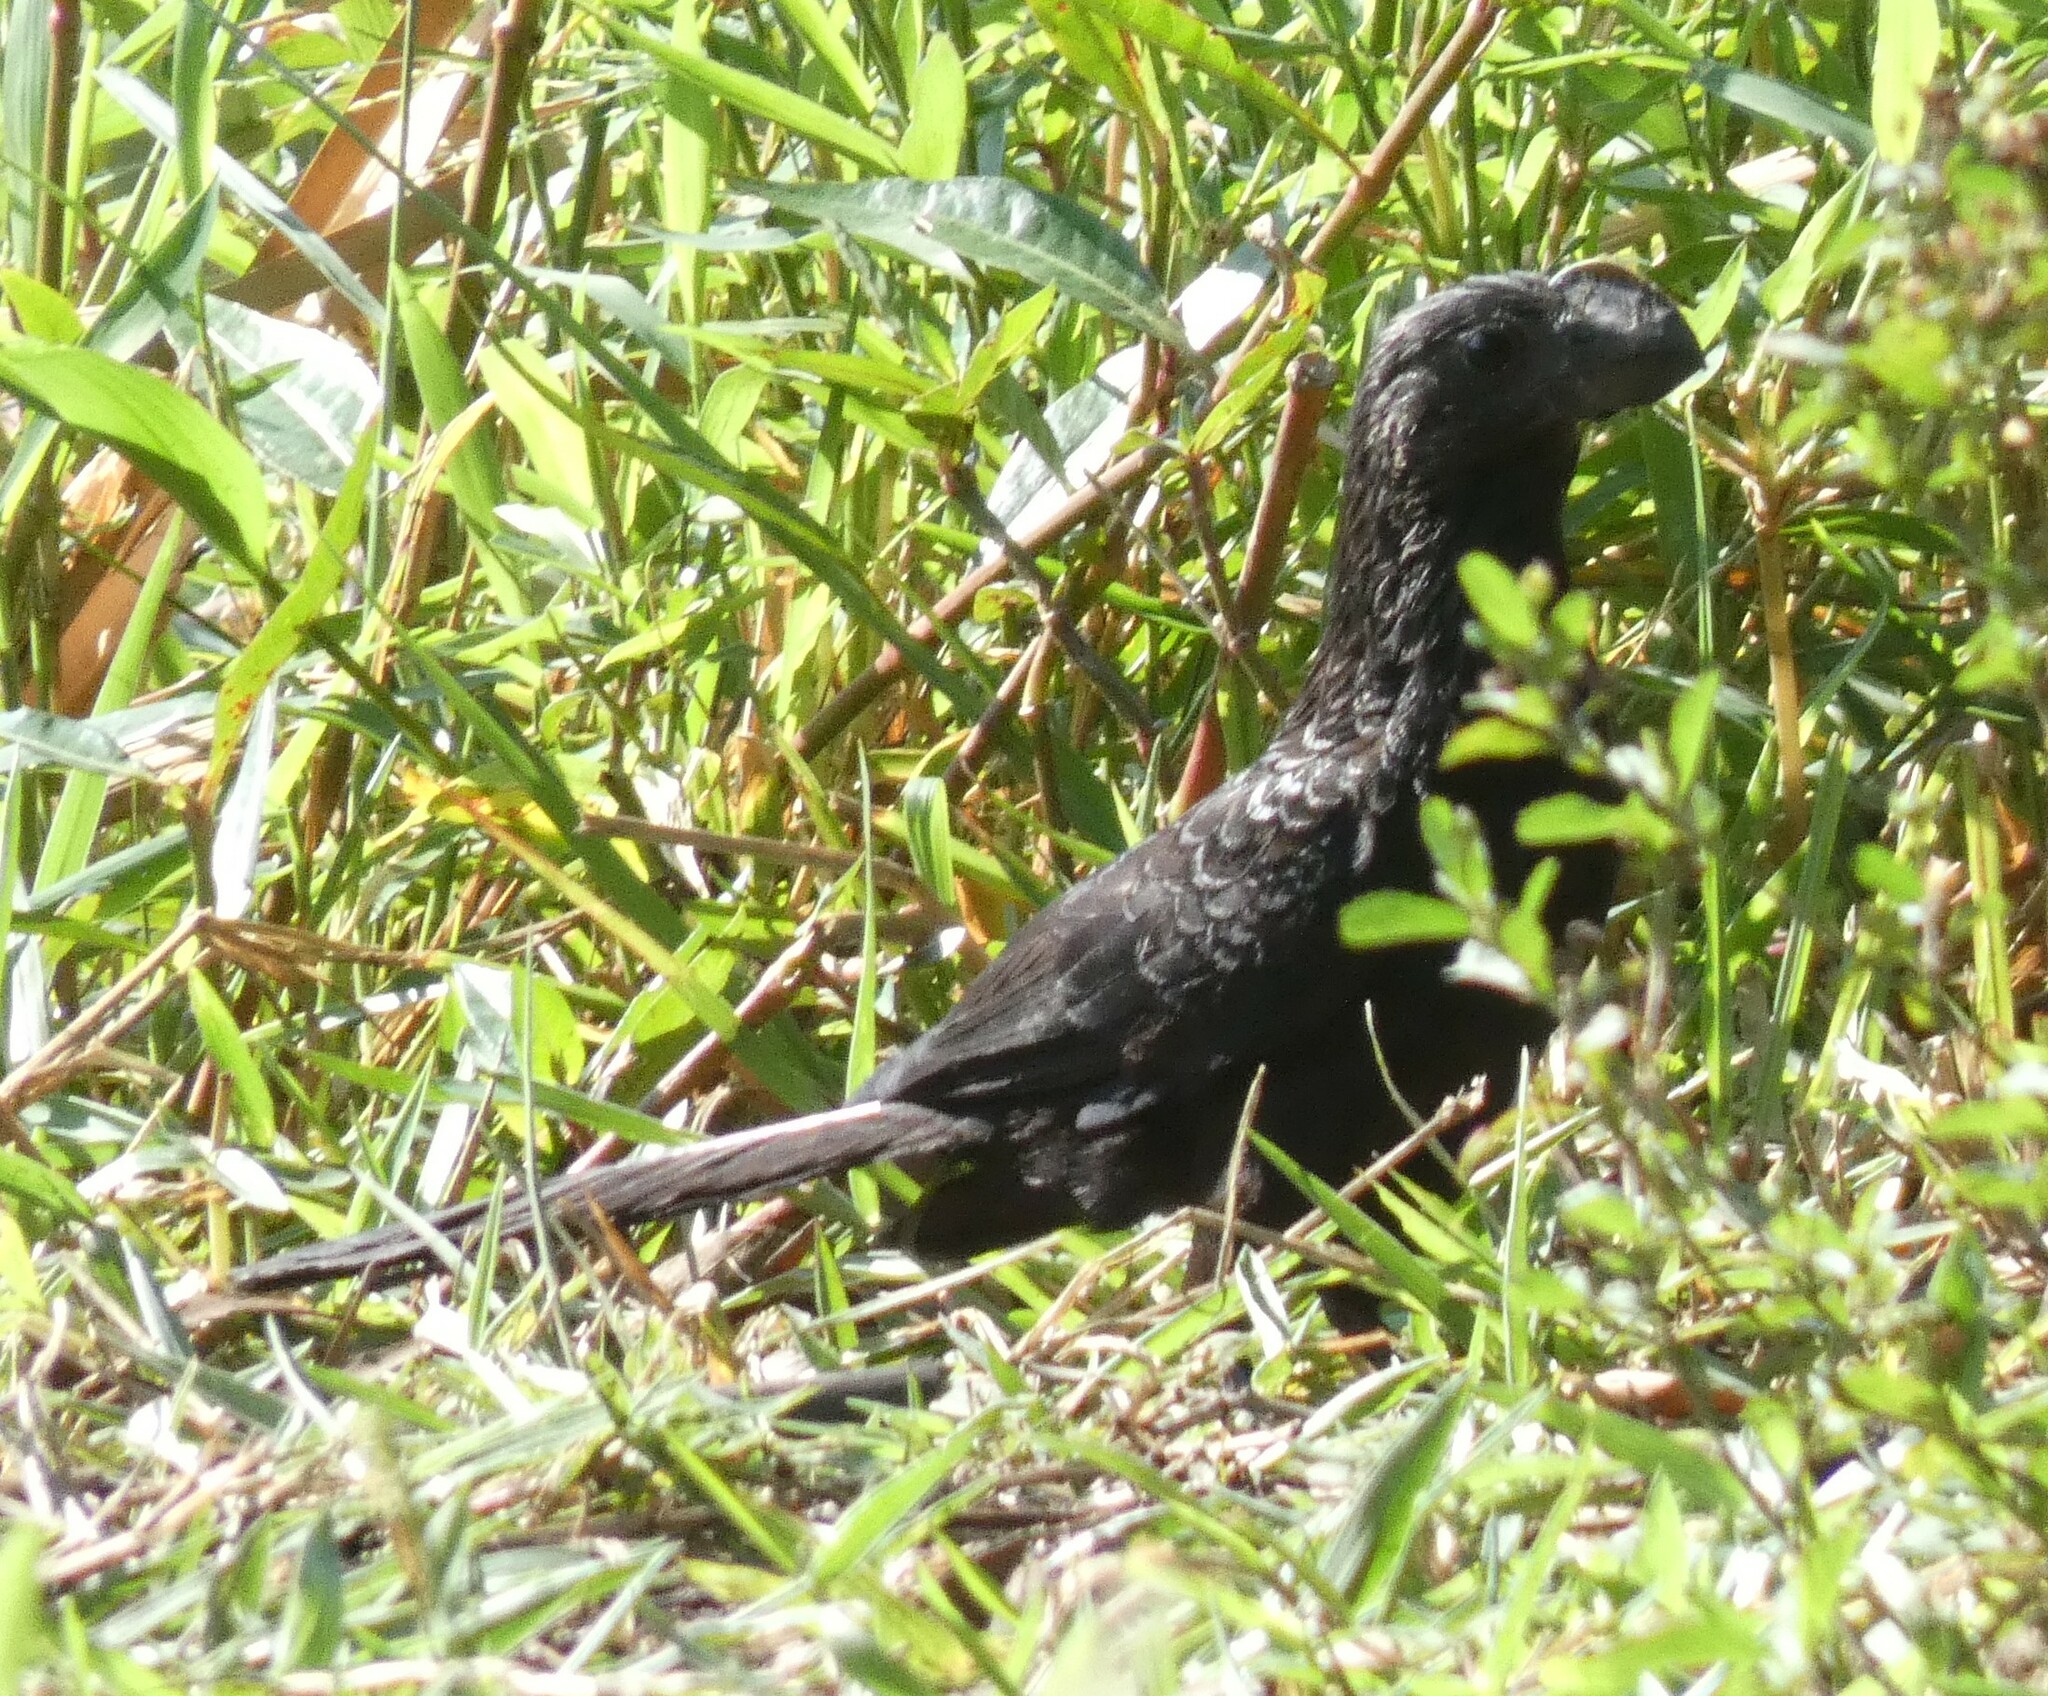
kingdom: Animalia
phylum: Chordata
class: Aves
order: Cuculiformes
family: Cuculidae
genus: Crotophaga
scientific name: Crotophaga ani
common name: Smooth-billed ani
